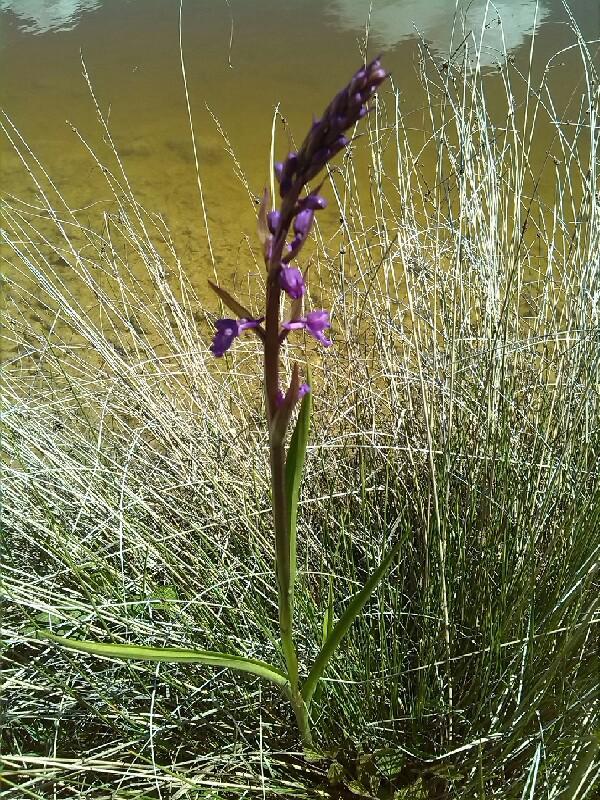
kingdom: Plantae
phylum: Tracheophyta
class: Liliopsida
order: Asparagales
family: Orchidaceae
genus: Orchis
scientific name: Orchis mascula
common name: Early-purple orchid
